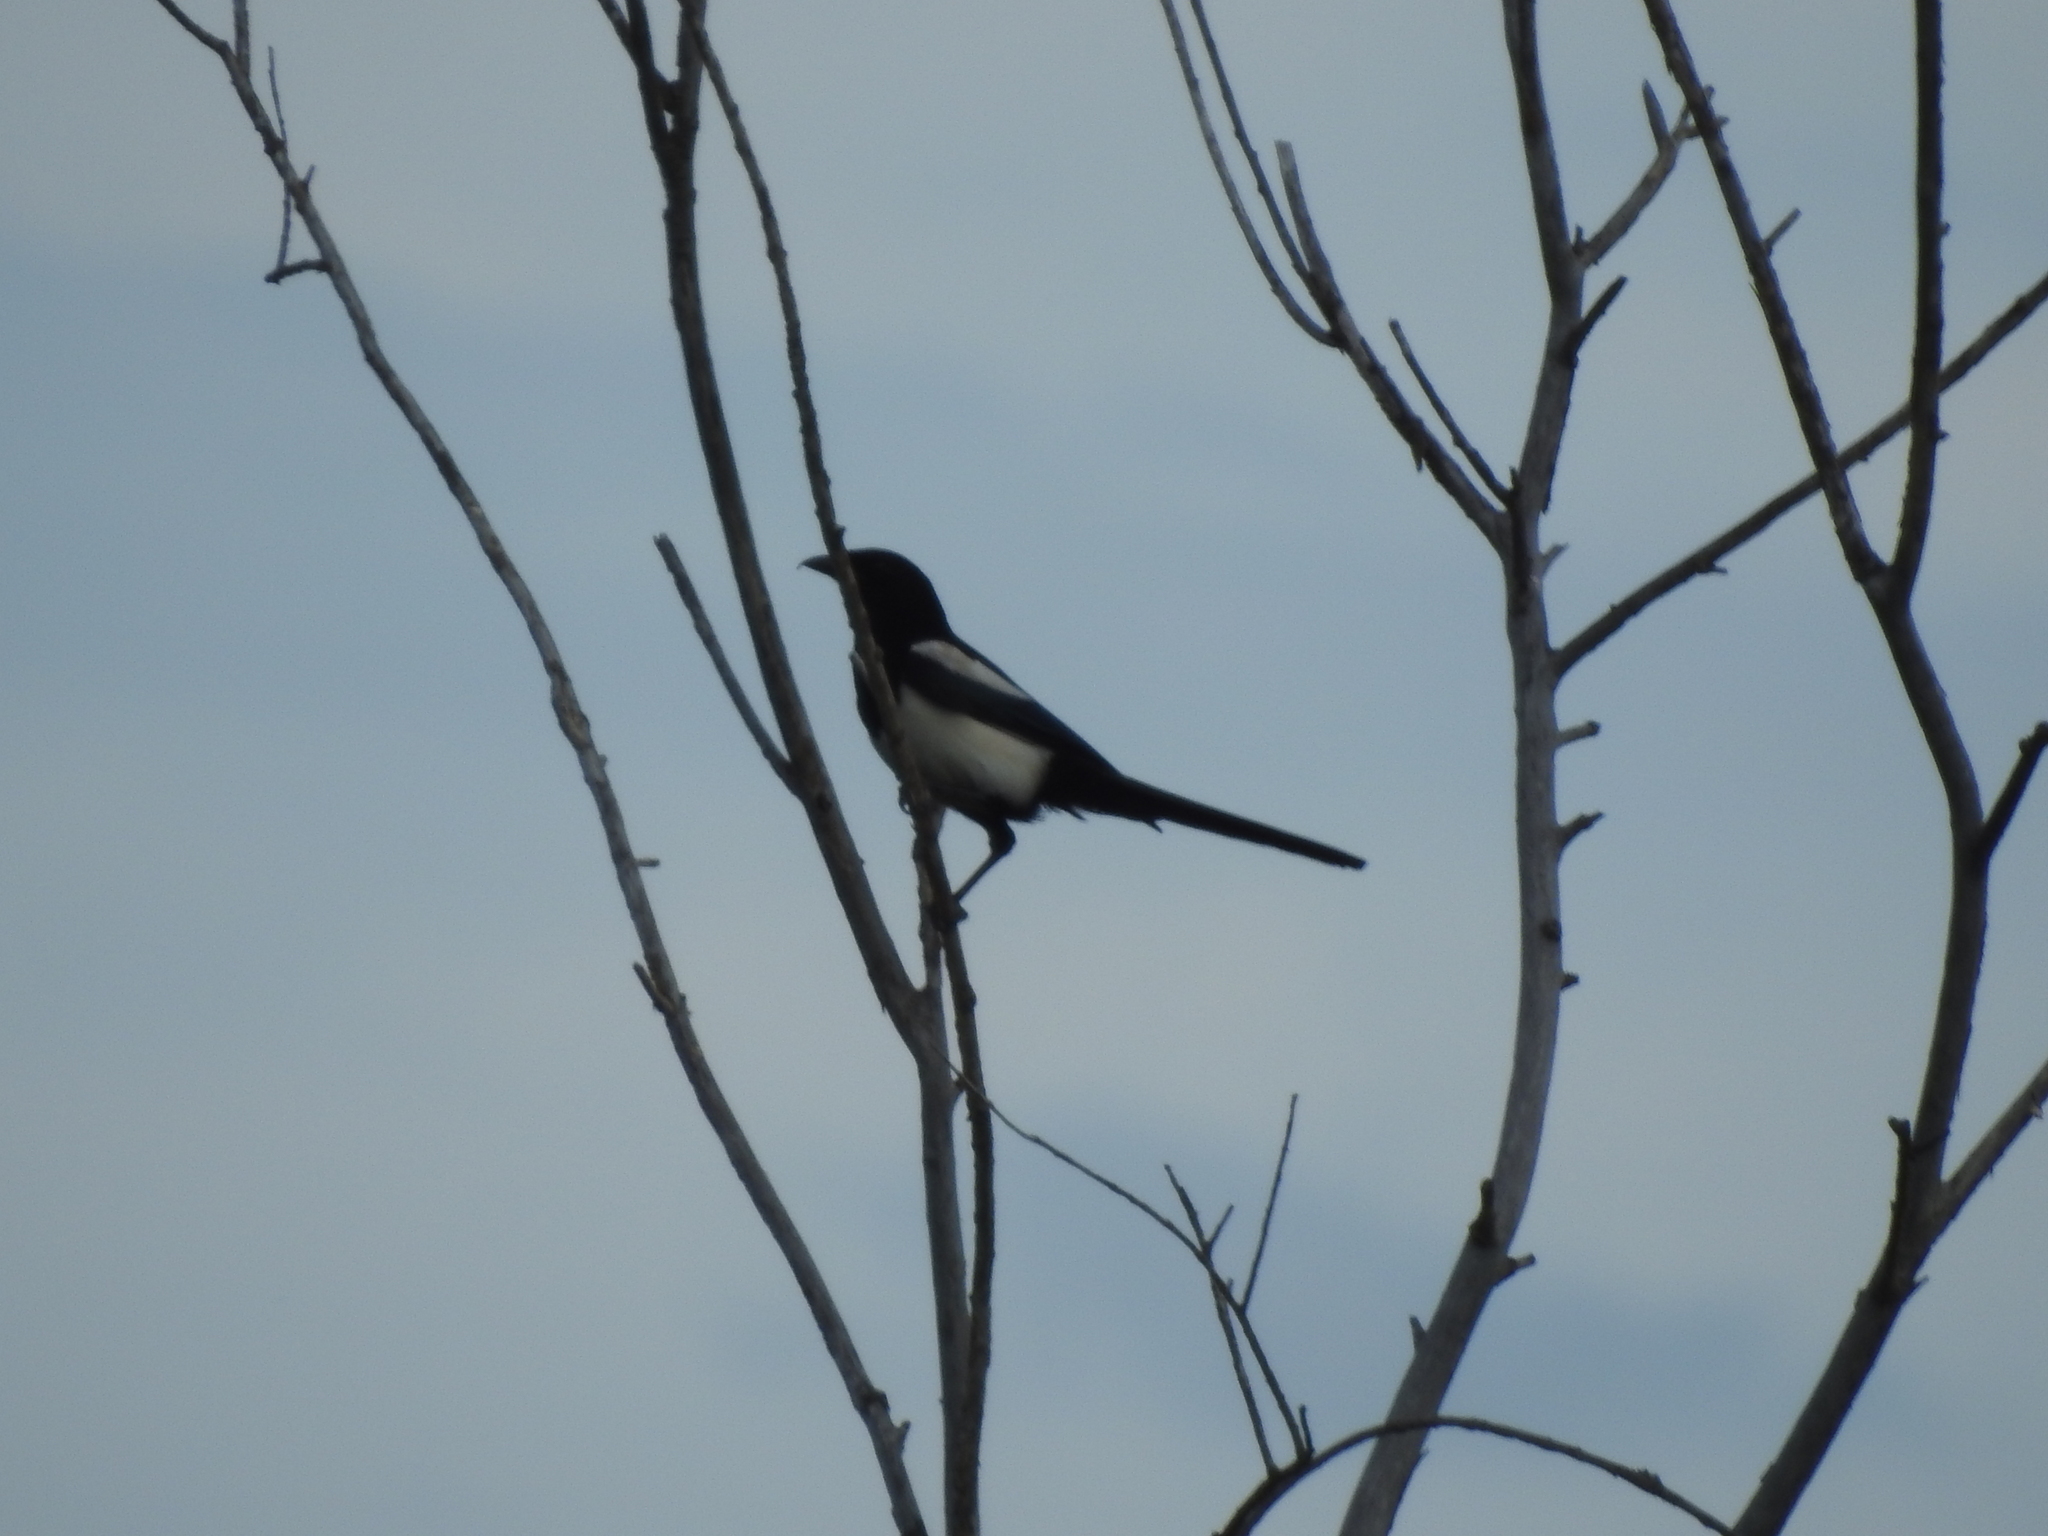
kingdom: Animalia
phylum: Chordata
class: Aves
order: Passeriformes
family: Corvidae
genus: Pica
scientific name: Pica pica
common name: Eurasian magpie
